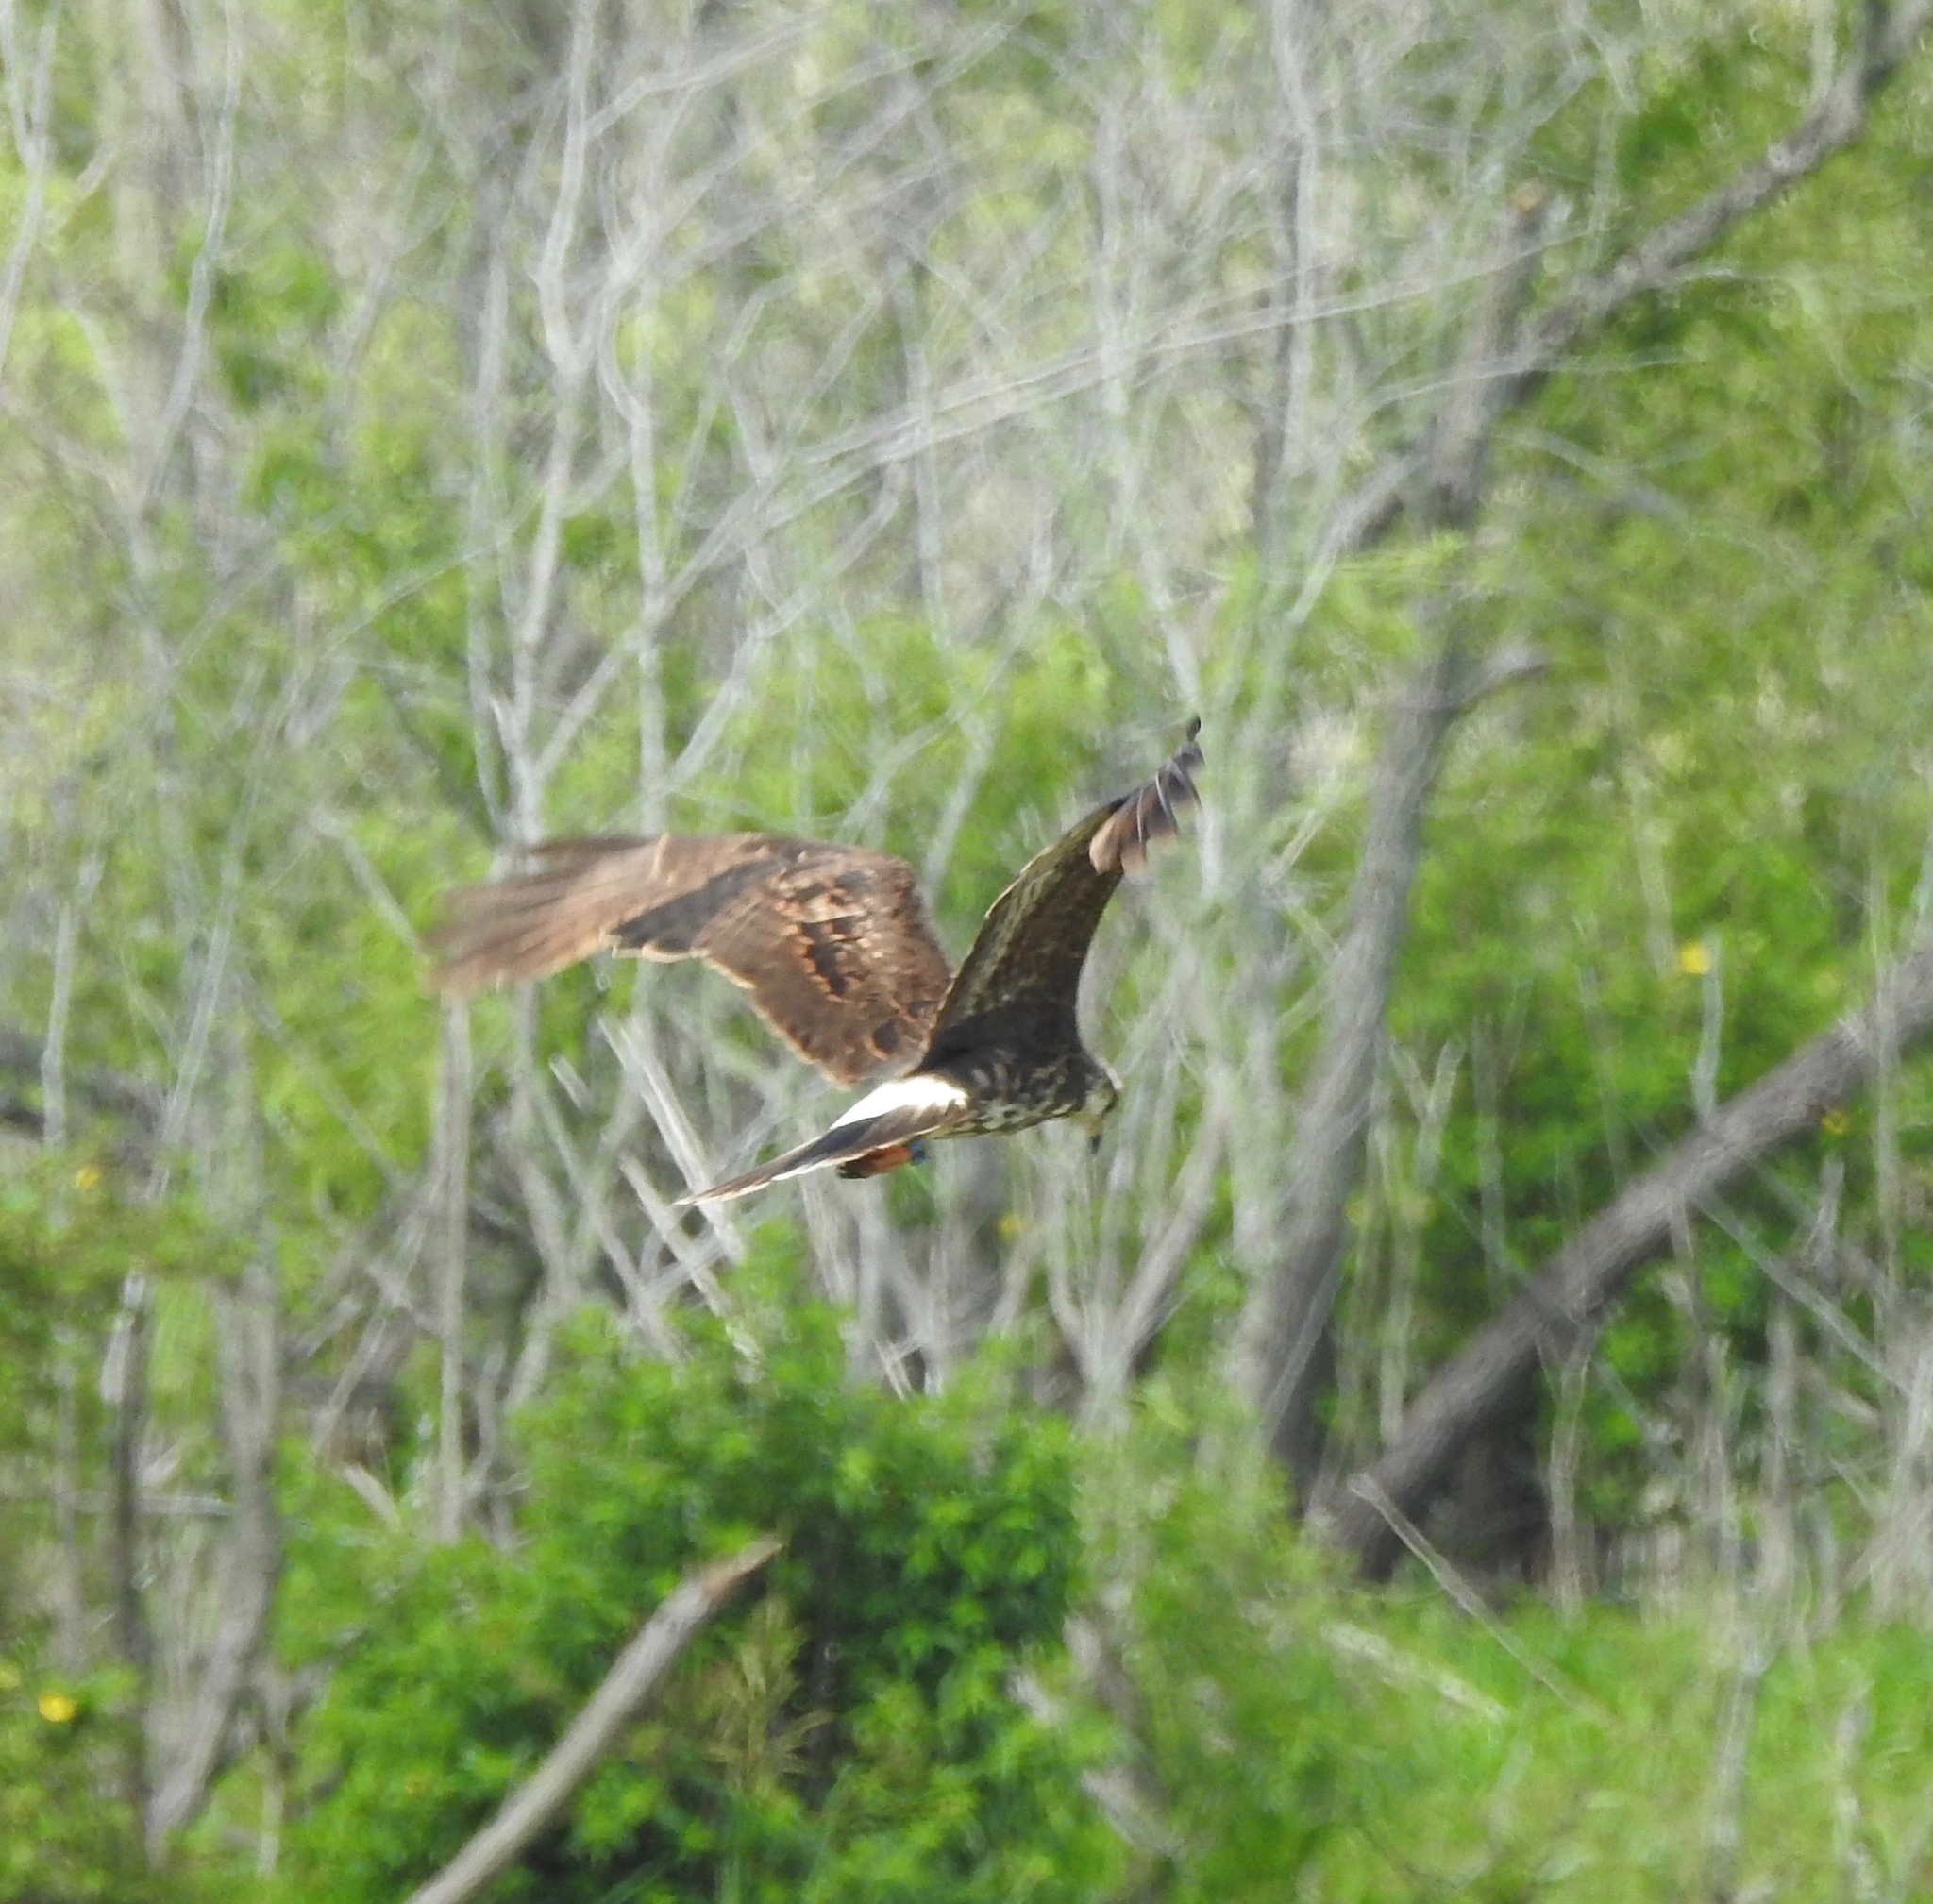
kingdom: Animalia
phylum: Chordata
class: Aves
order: Accipitriformes
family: Accipitridae
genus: Rostrhamus
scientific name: Rostrhamus sociabilis
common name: Snail kite
